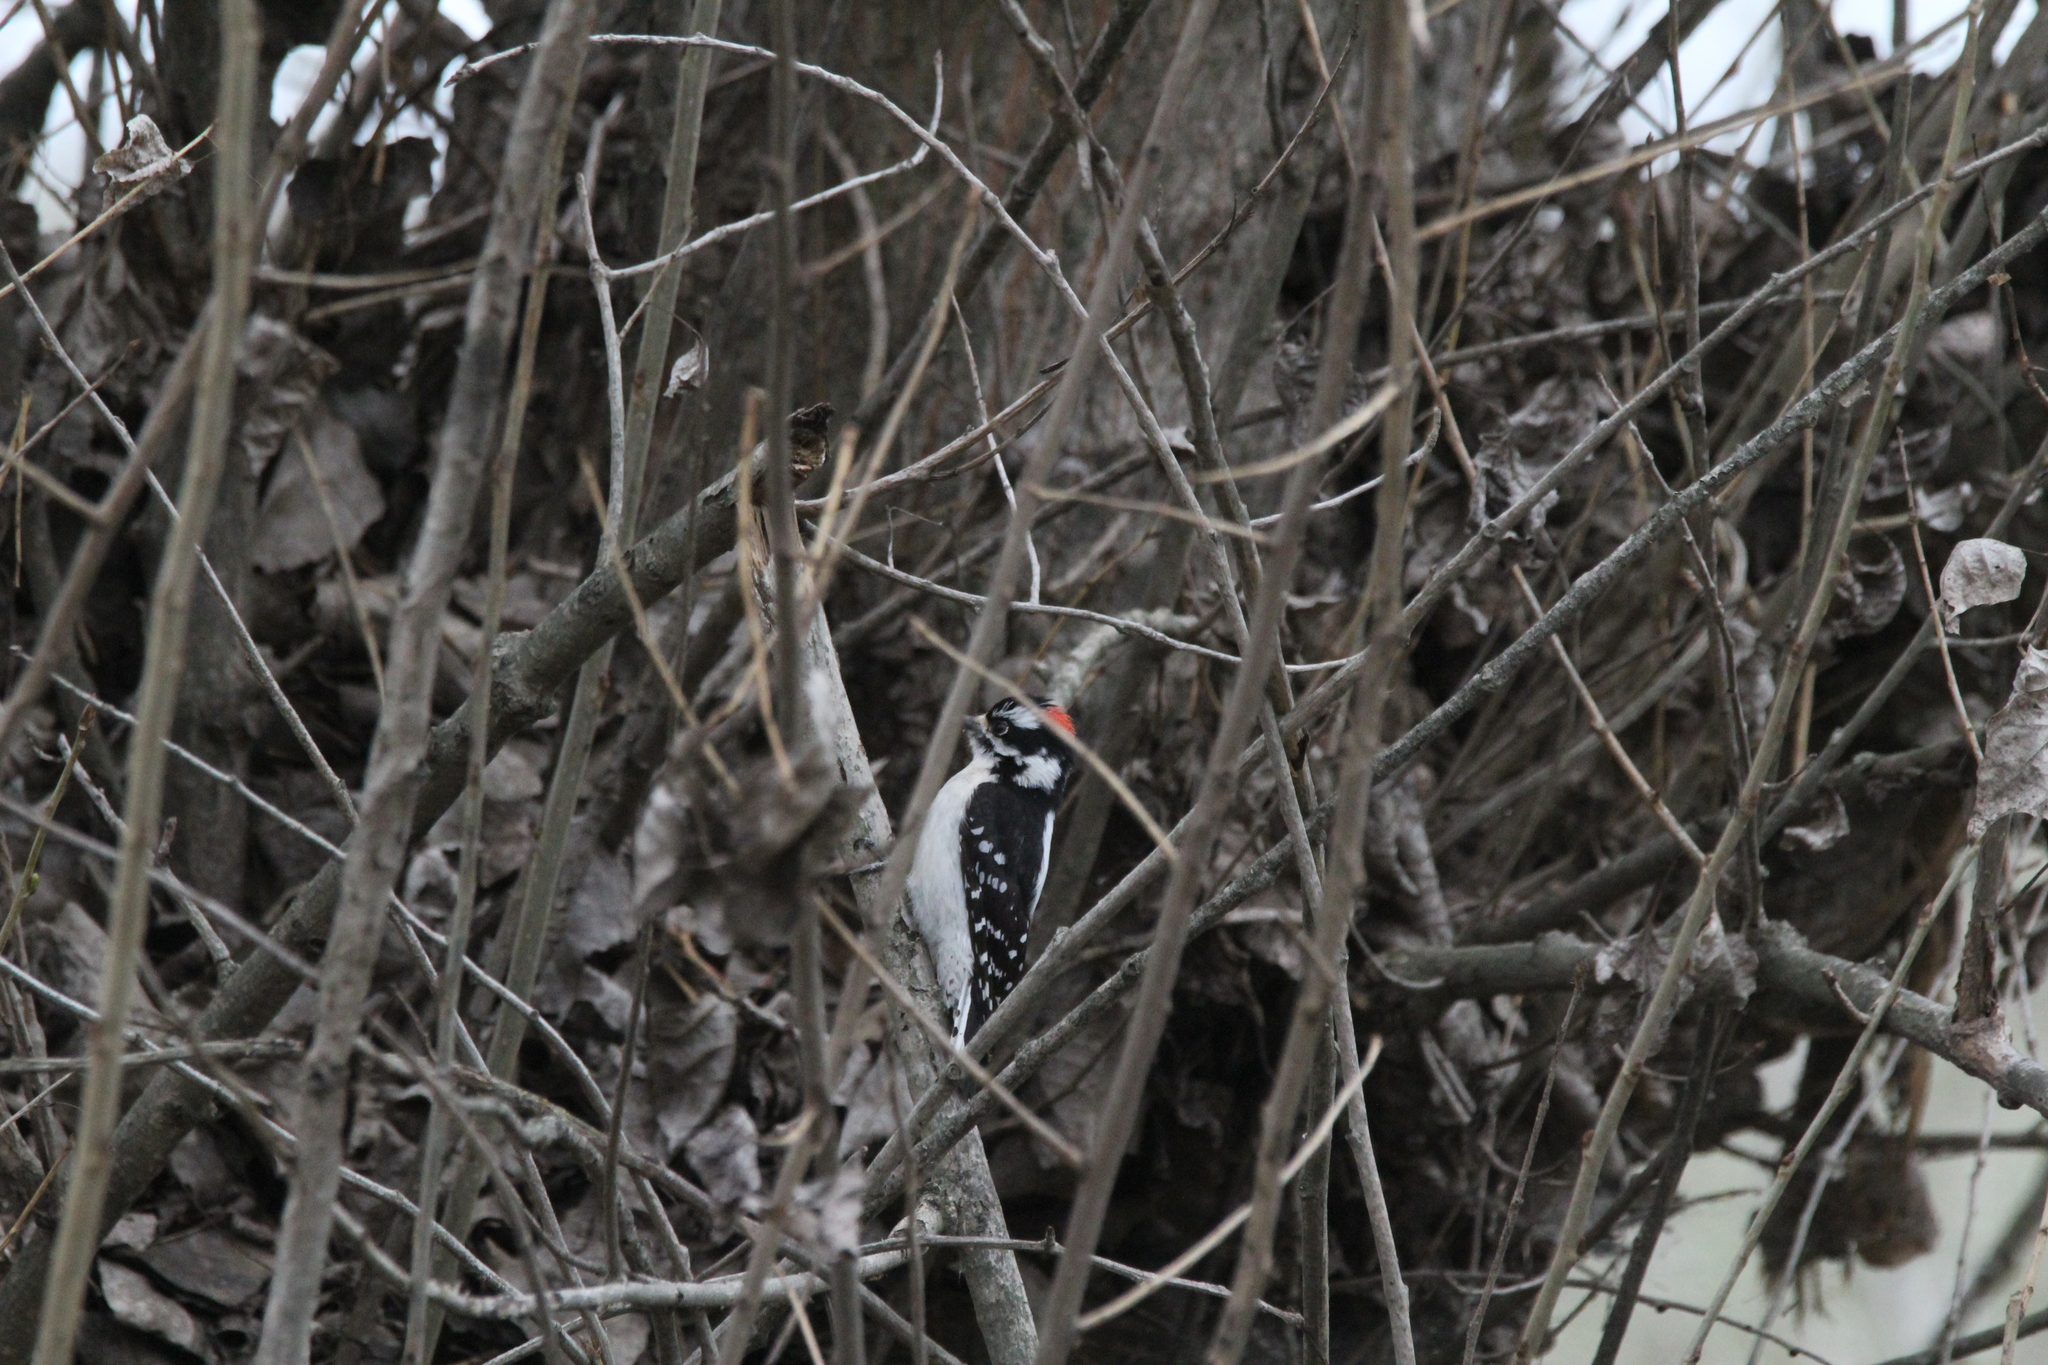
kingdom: Animalia
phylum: Chordata
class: Aves
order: Piciformes
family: Picidae
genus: Dryobates
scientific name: Dryobates pubescens
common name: Downy woodpecker
